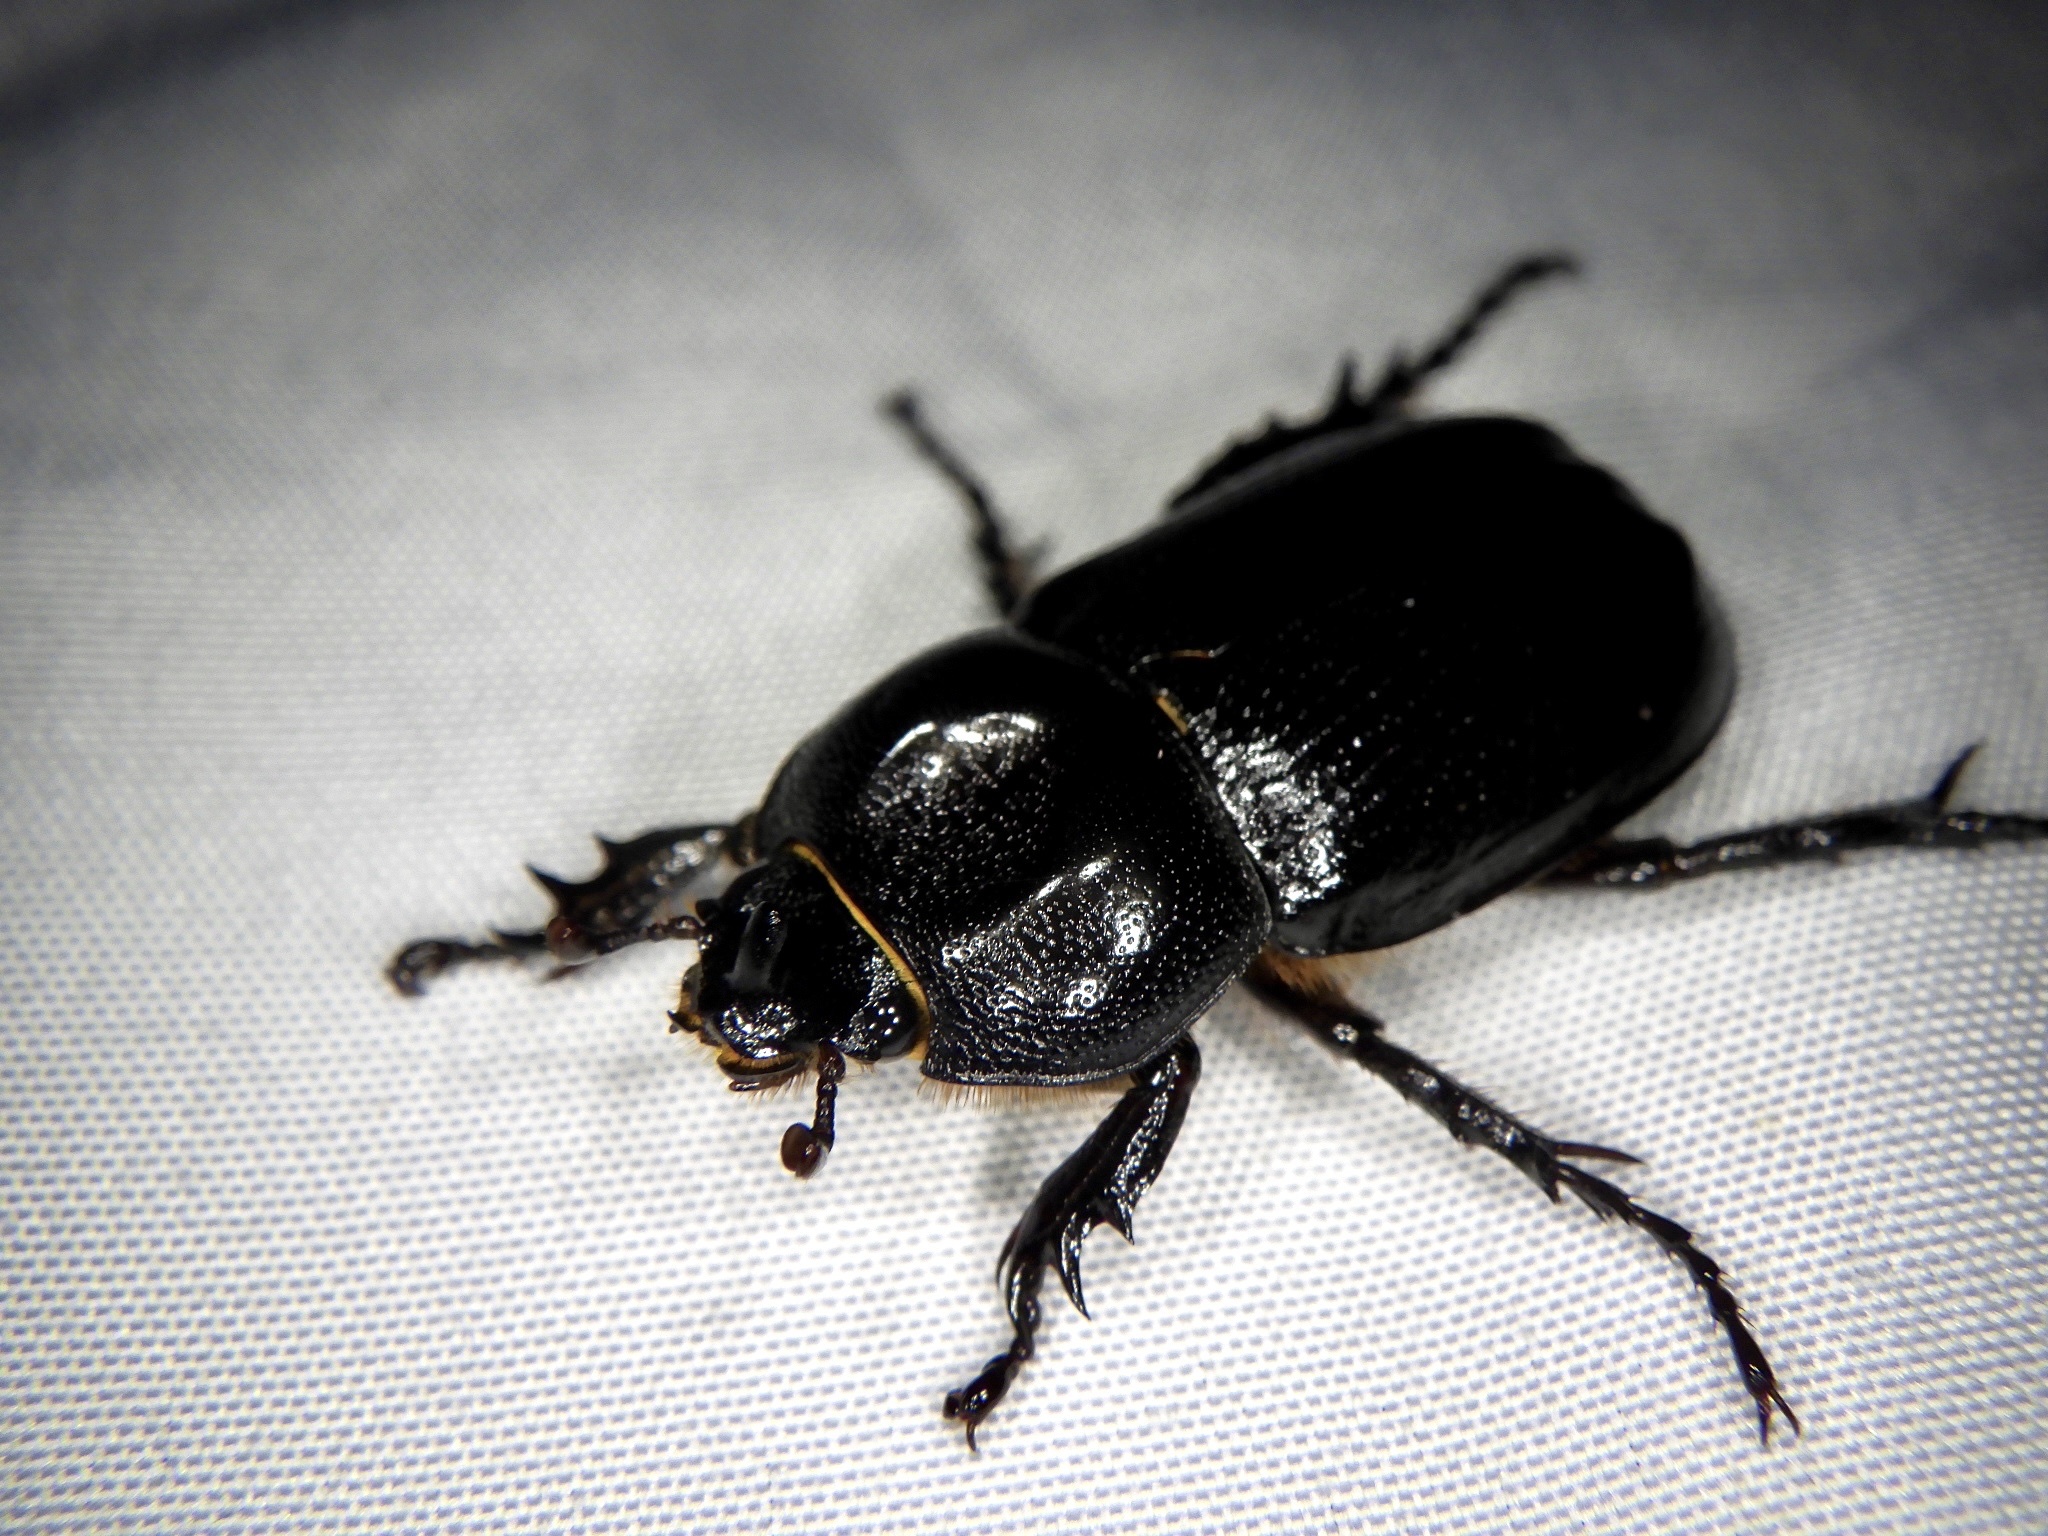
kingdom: Animalia
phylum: Arthropoda
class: Insecta
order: Coleoptera
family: Scarabaeidae
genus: Eophileurus
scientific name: Eophileurus chinensis
